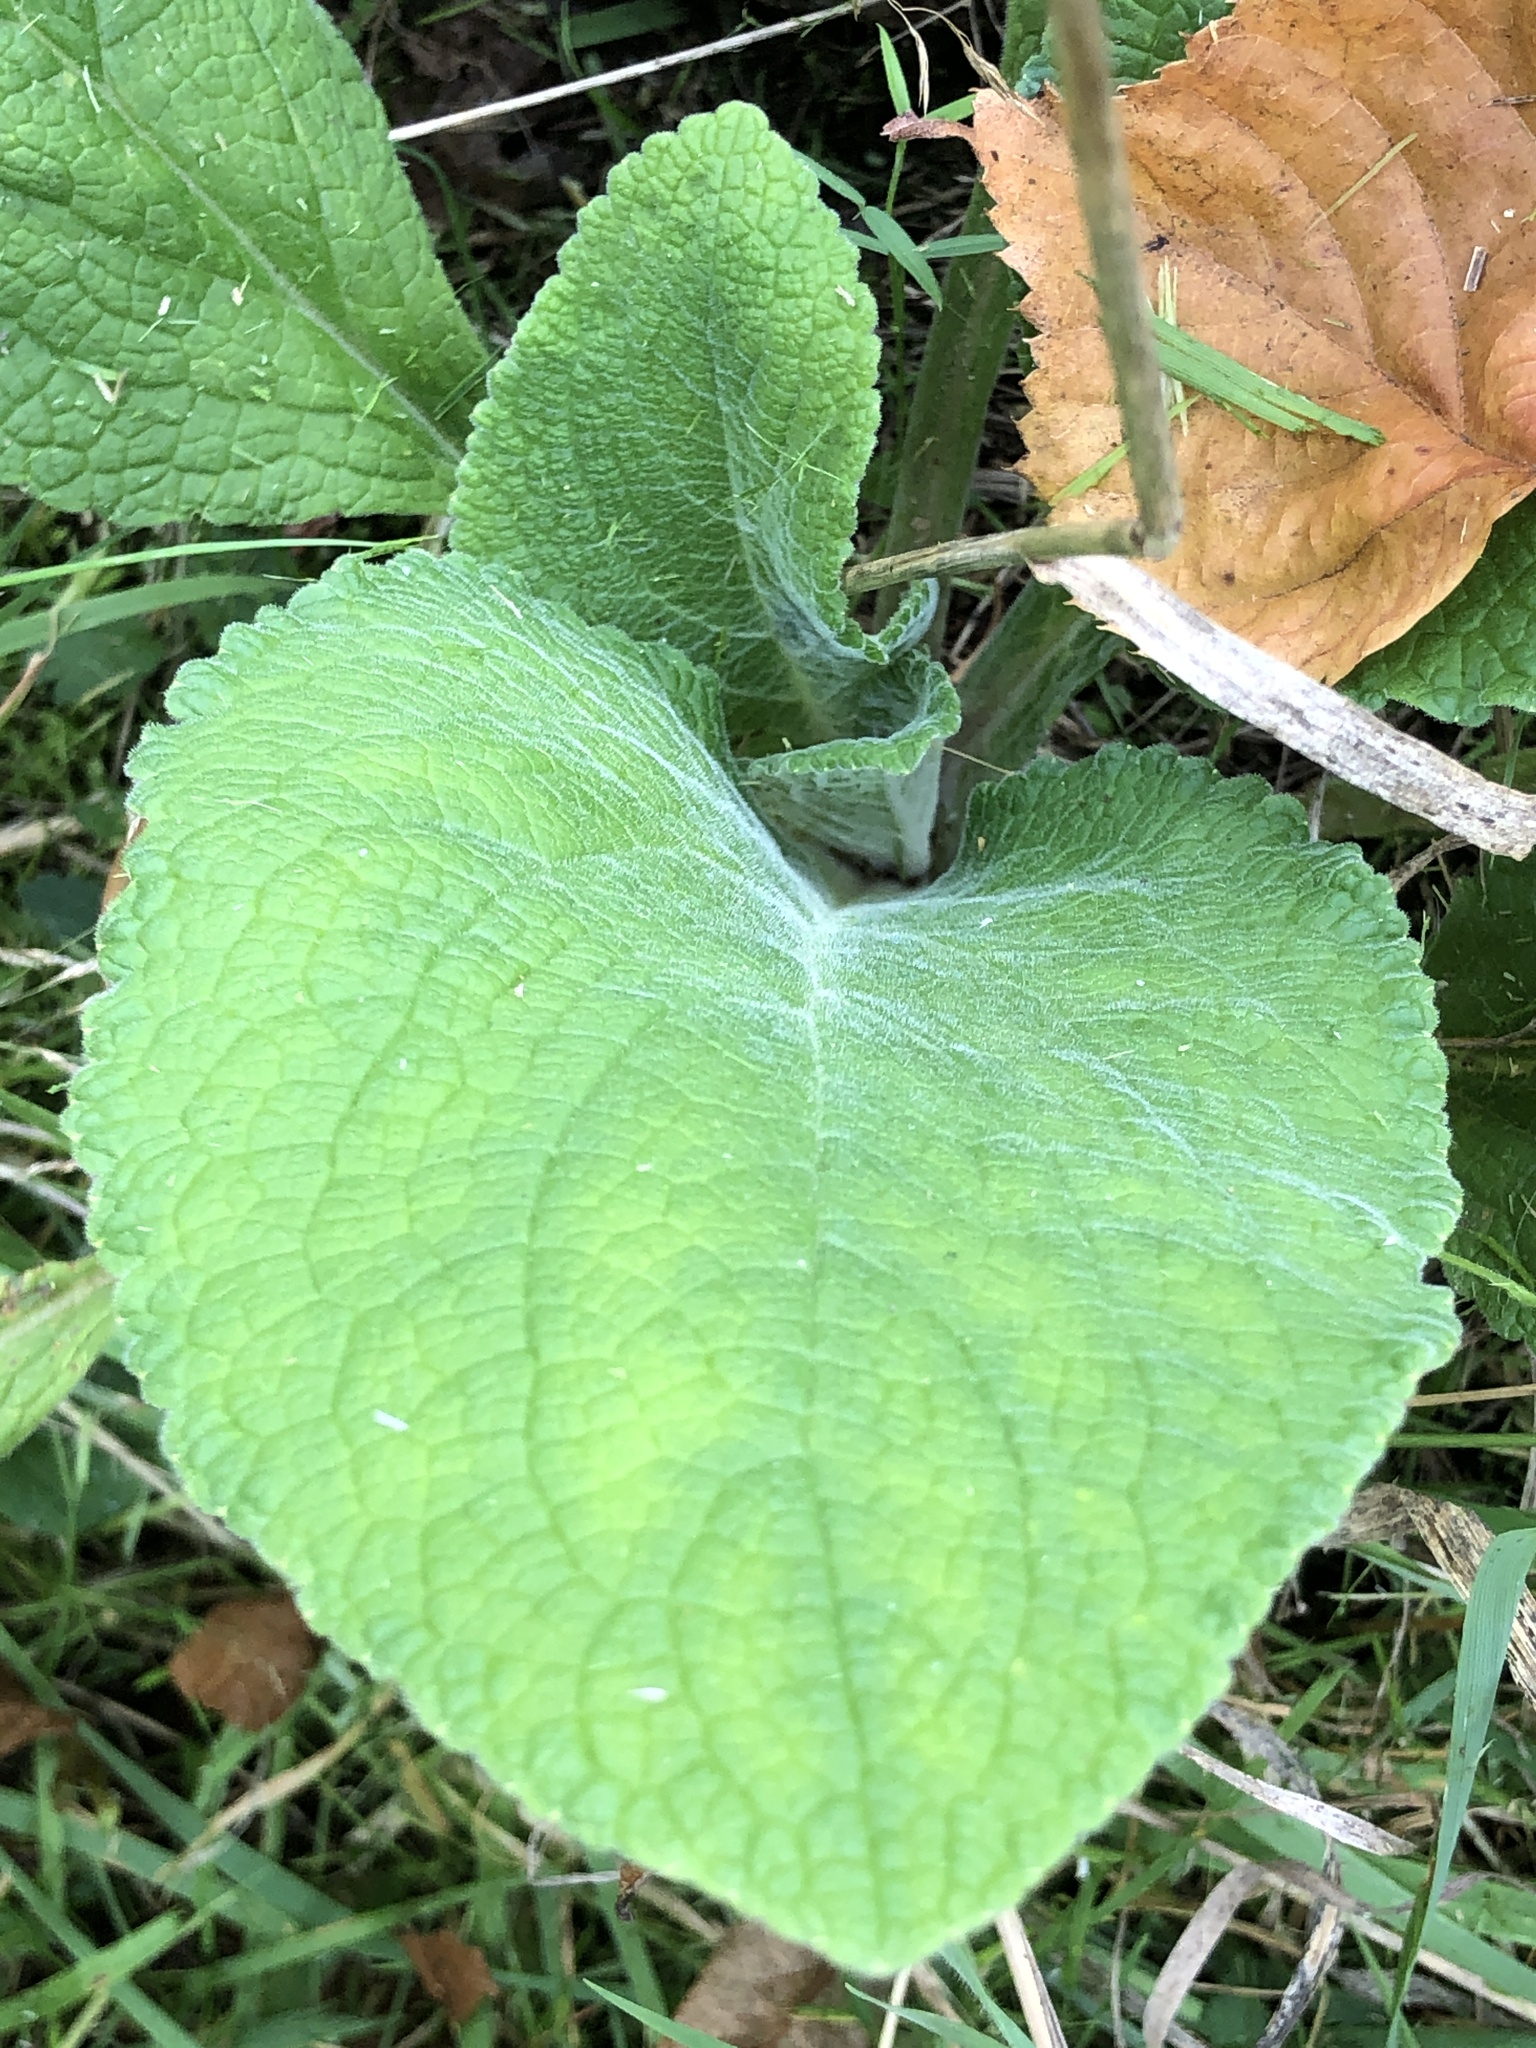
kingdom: Plantae
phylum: Tracheophyta
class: Magnoliopsida
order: Lamiales
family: Plantaginaceae
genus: Digitalis
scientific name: Digitalis purpurea
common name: Foxglove
